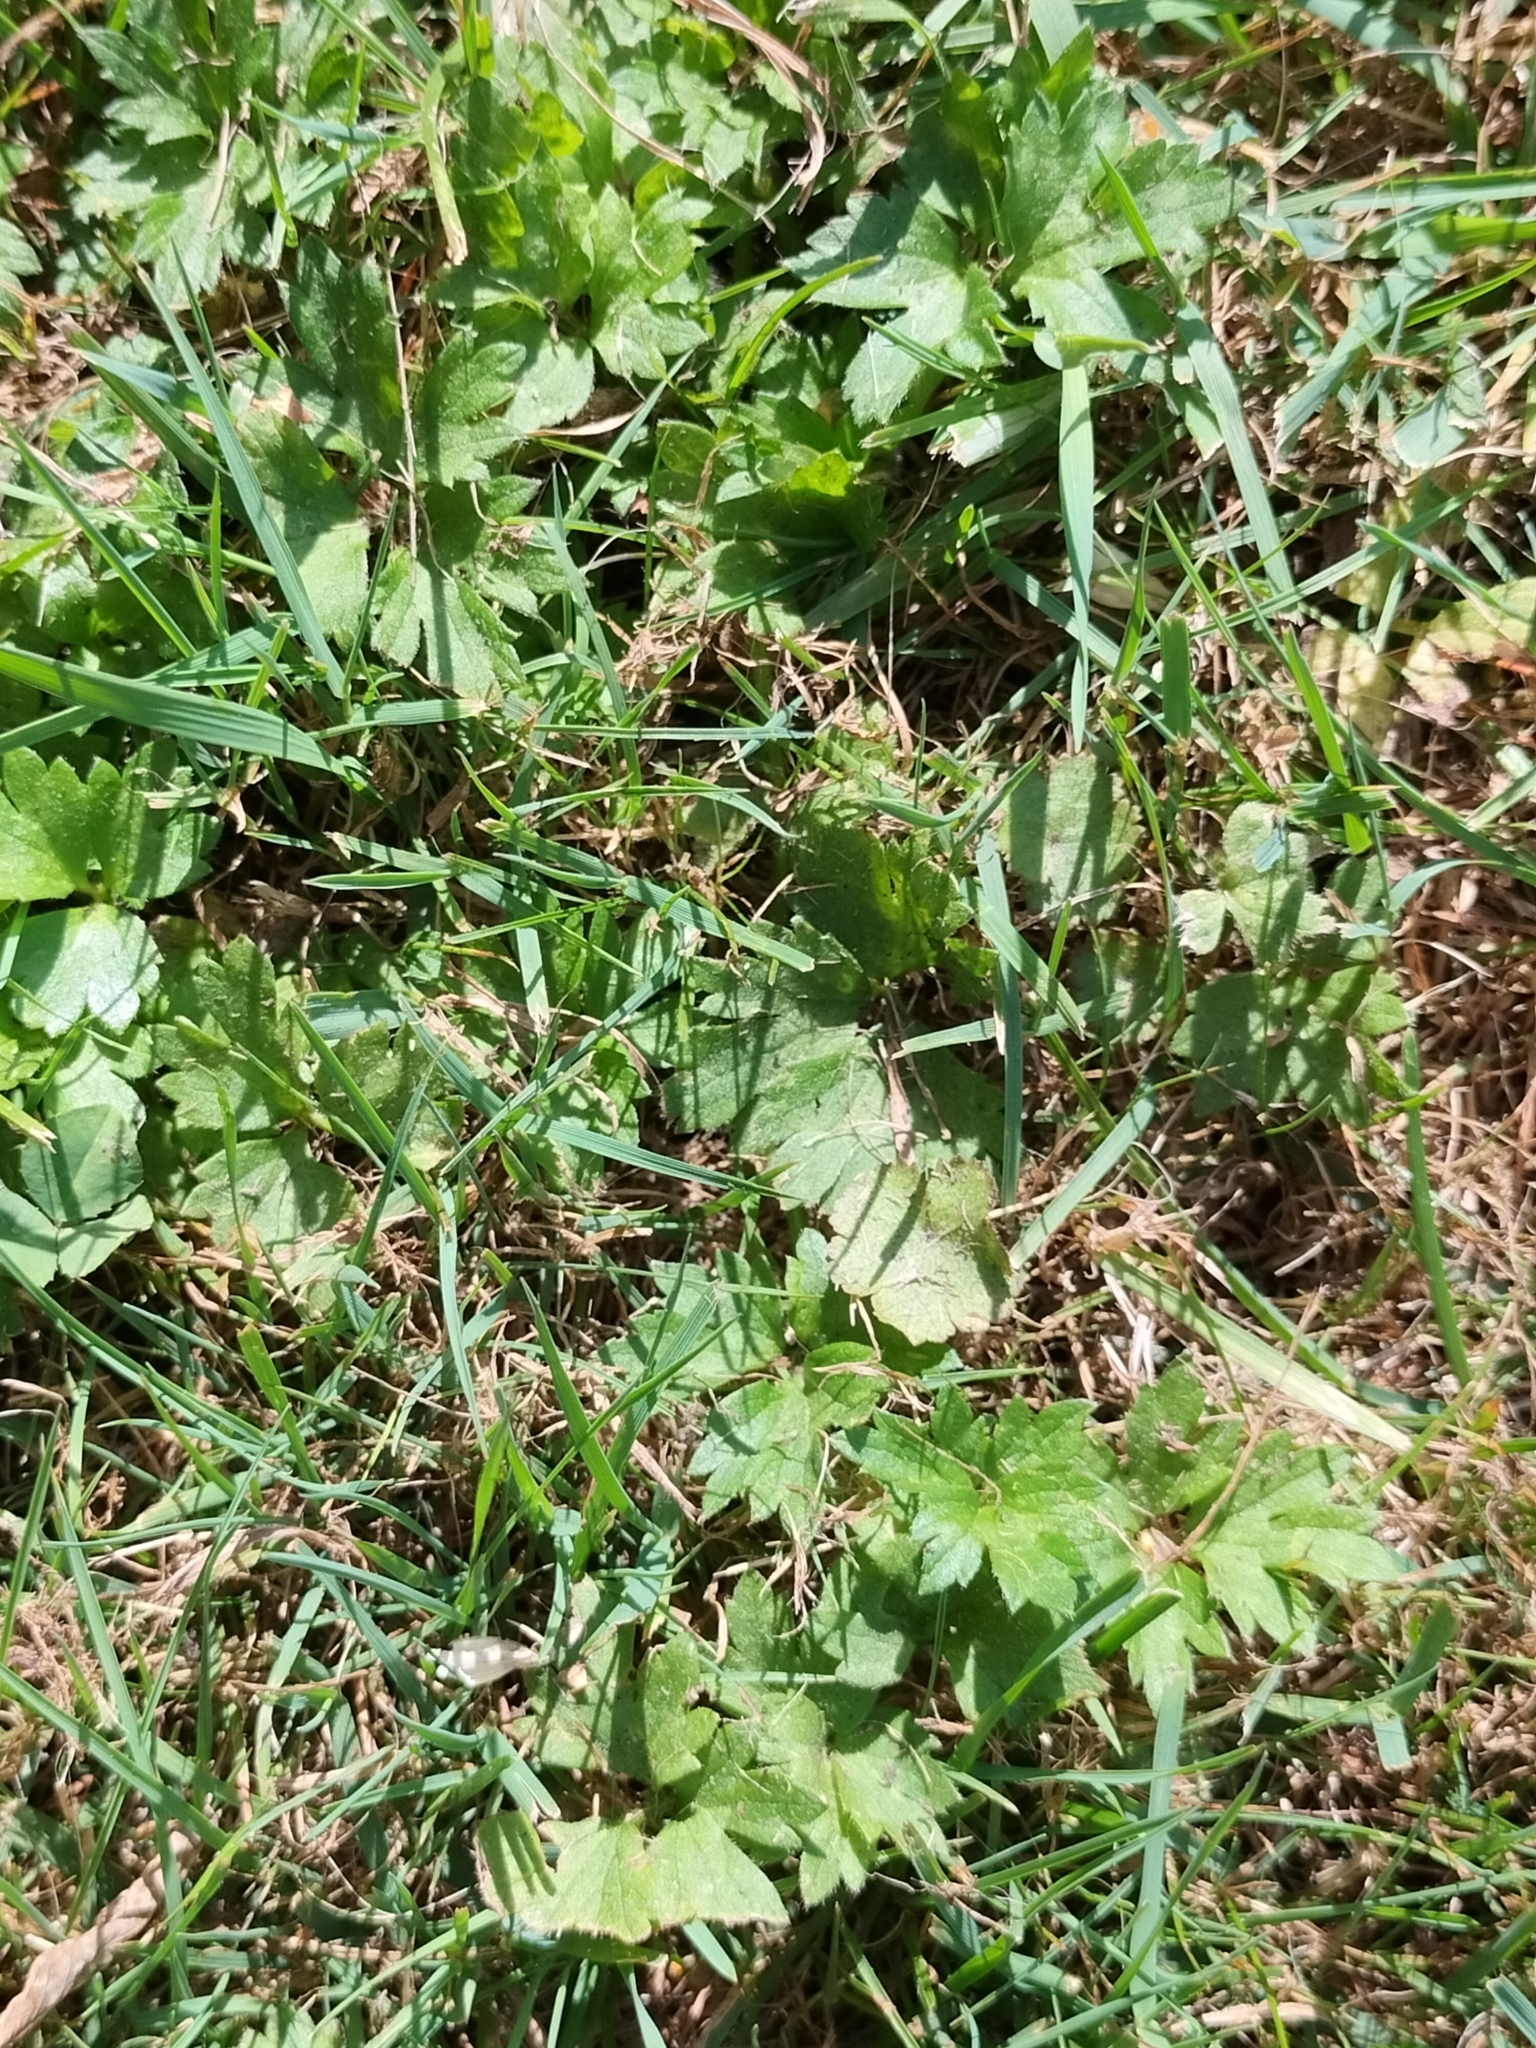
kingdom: Plantae
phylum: Tracheophyta
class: Magnoliopsida
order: Ranunculales
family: Ranunculaceae
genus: Ranunculus
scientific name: Ranunculus repens
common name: Creeping buttercup
